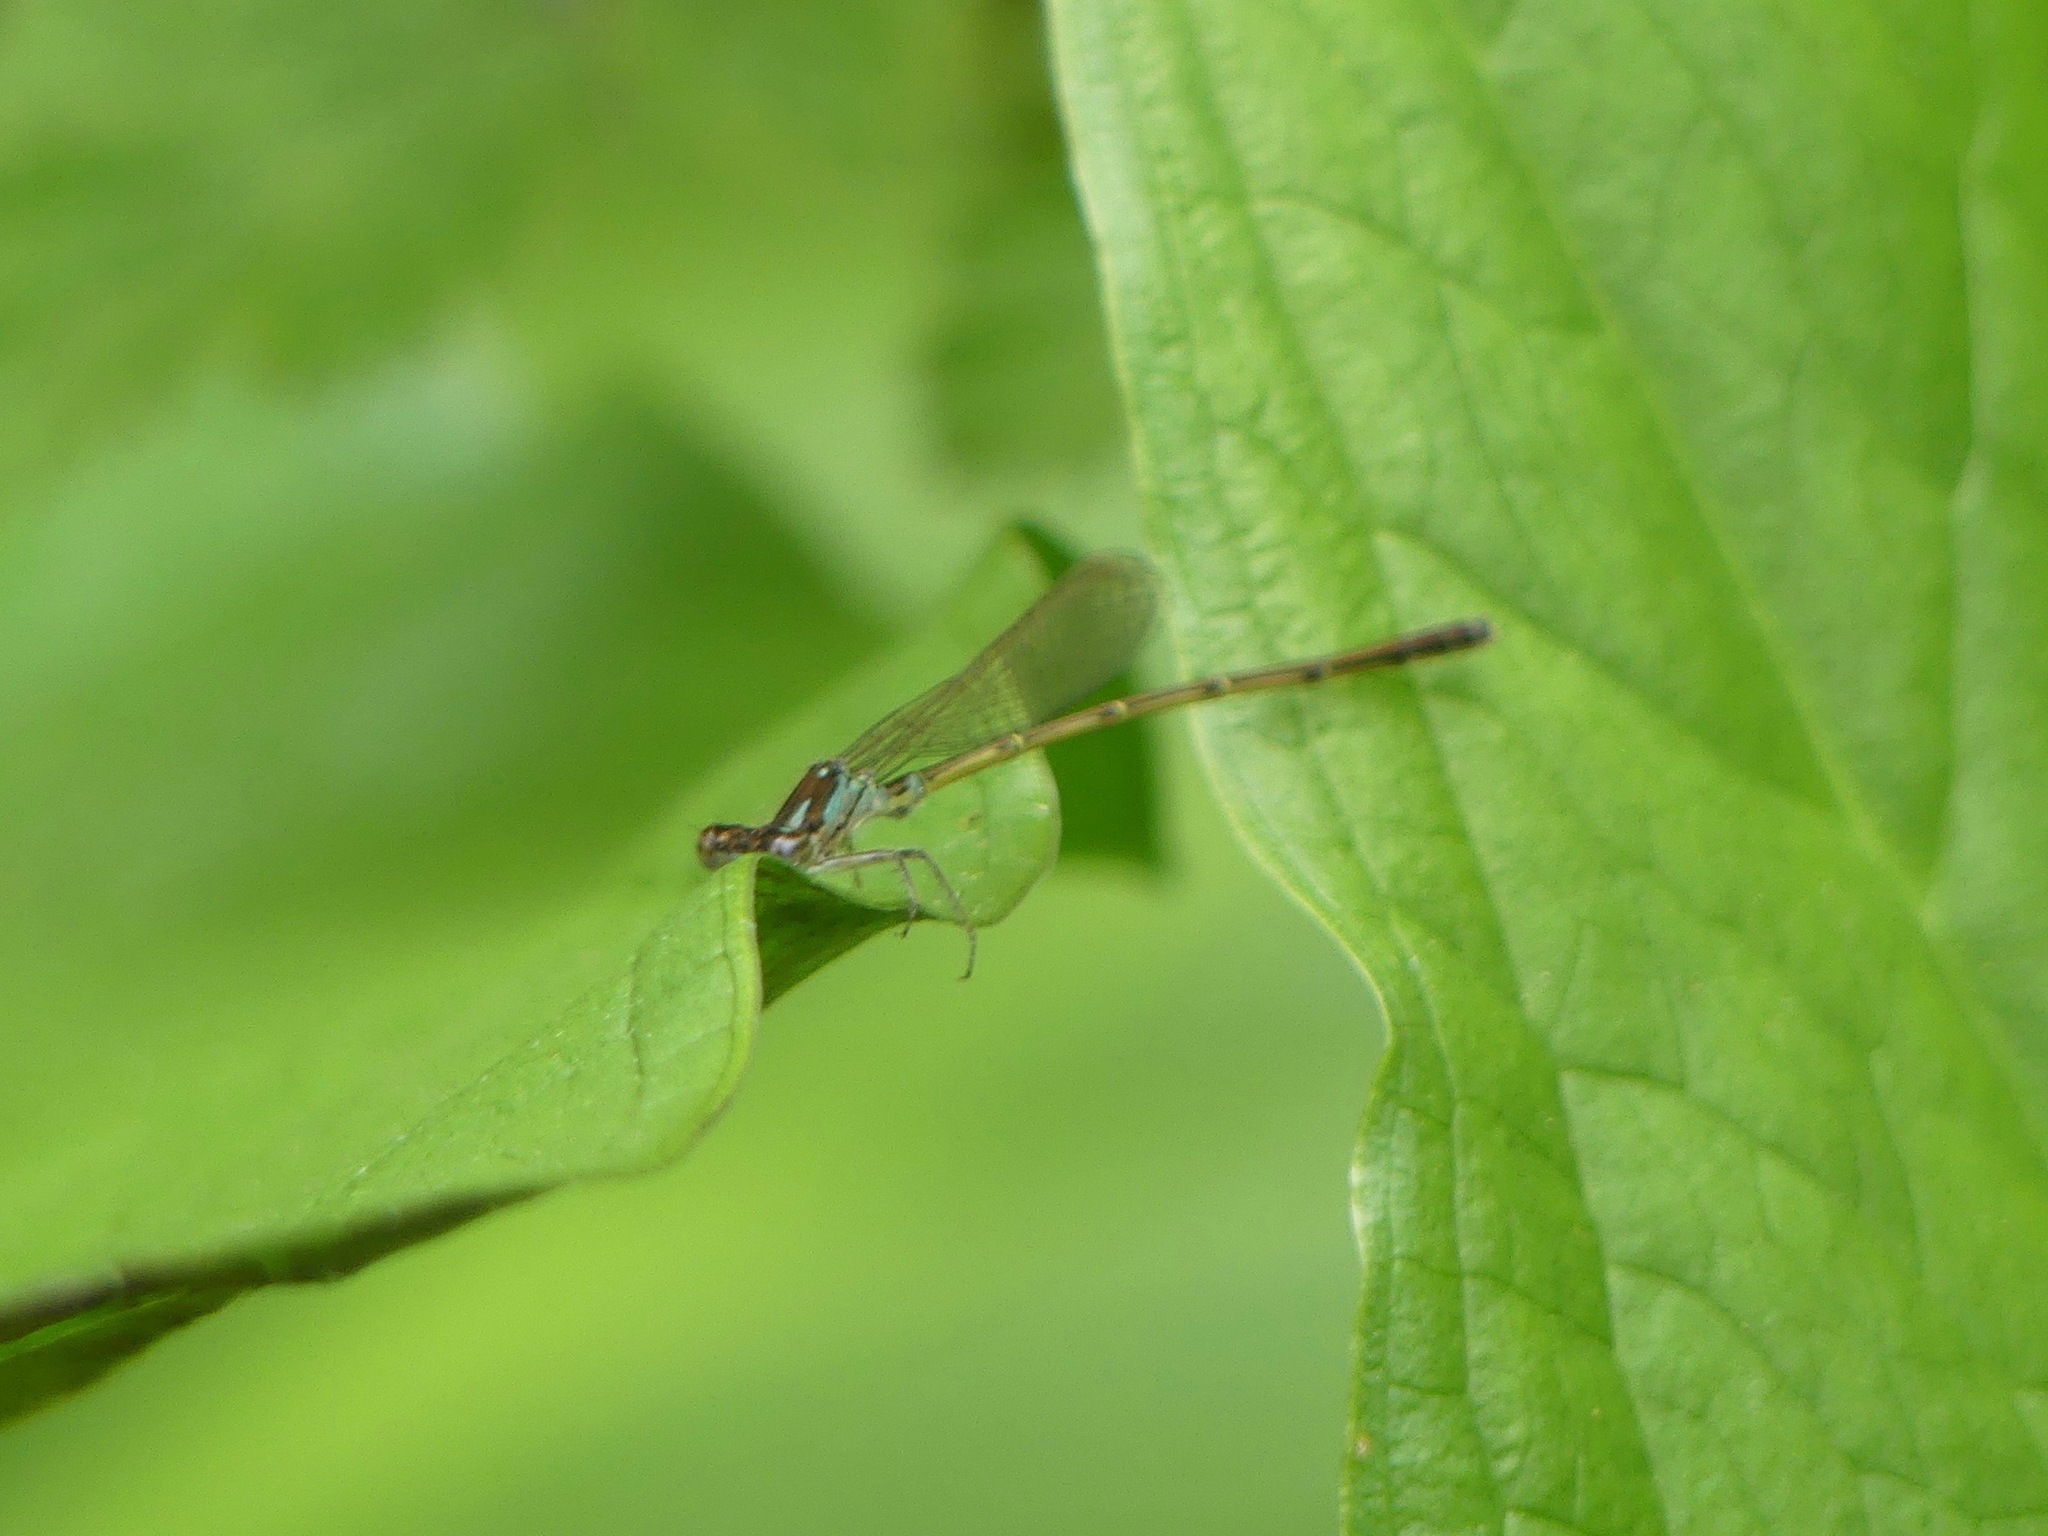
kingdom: Animalia
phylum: Arthropoda
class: Insecta
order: Odonata
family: Coenagrionidae
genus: Ischnura
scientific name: Ischnura posita
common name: Fragile forktail
